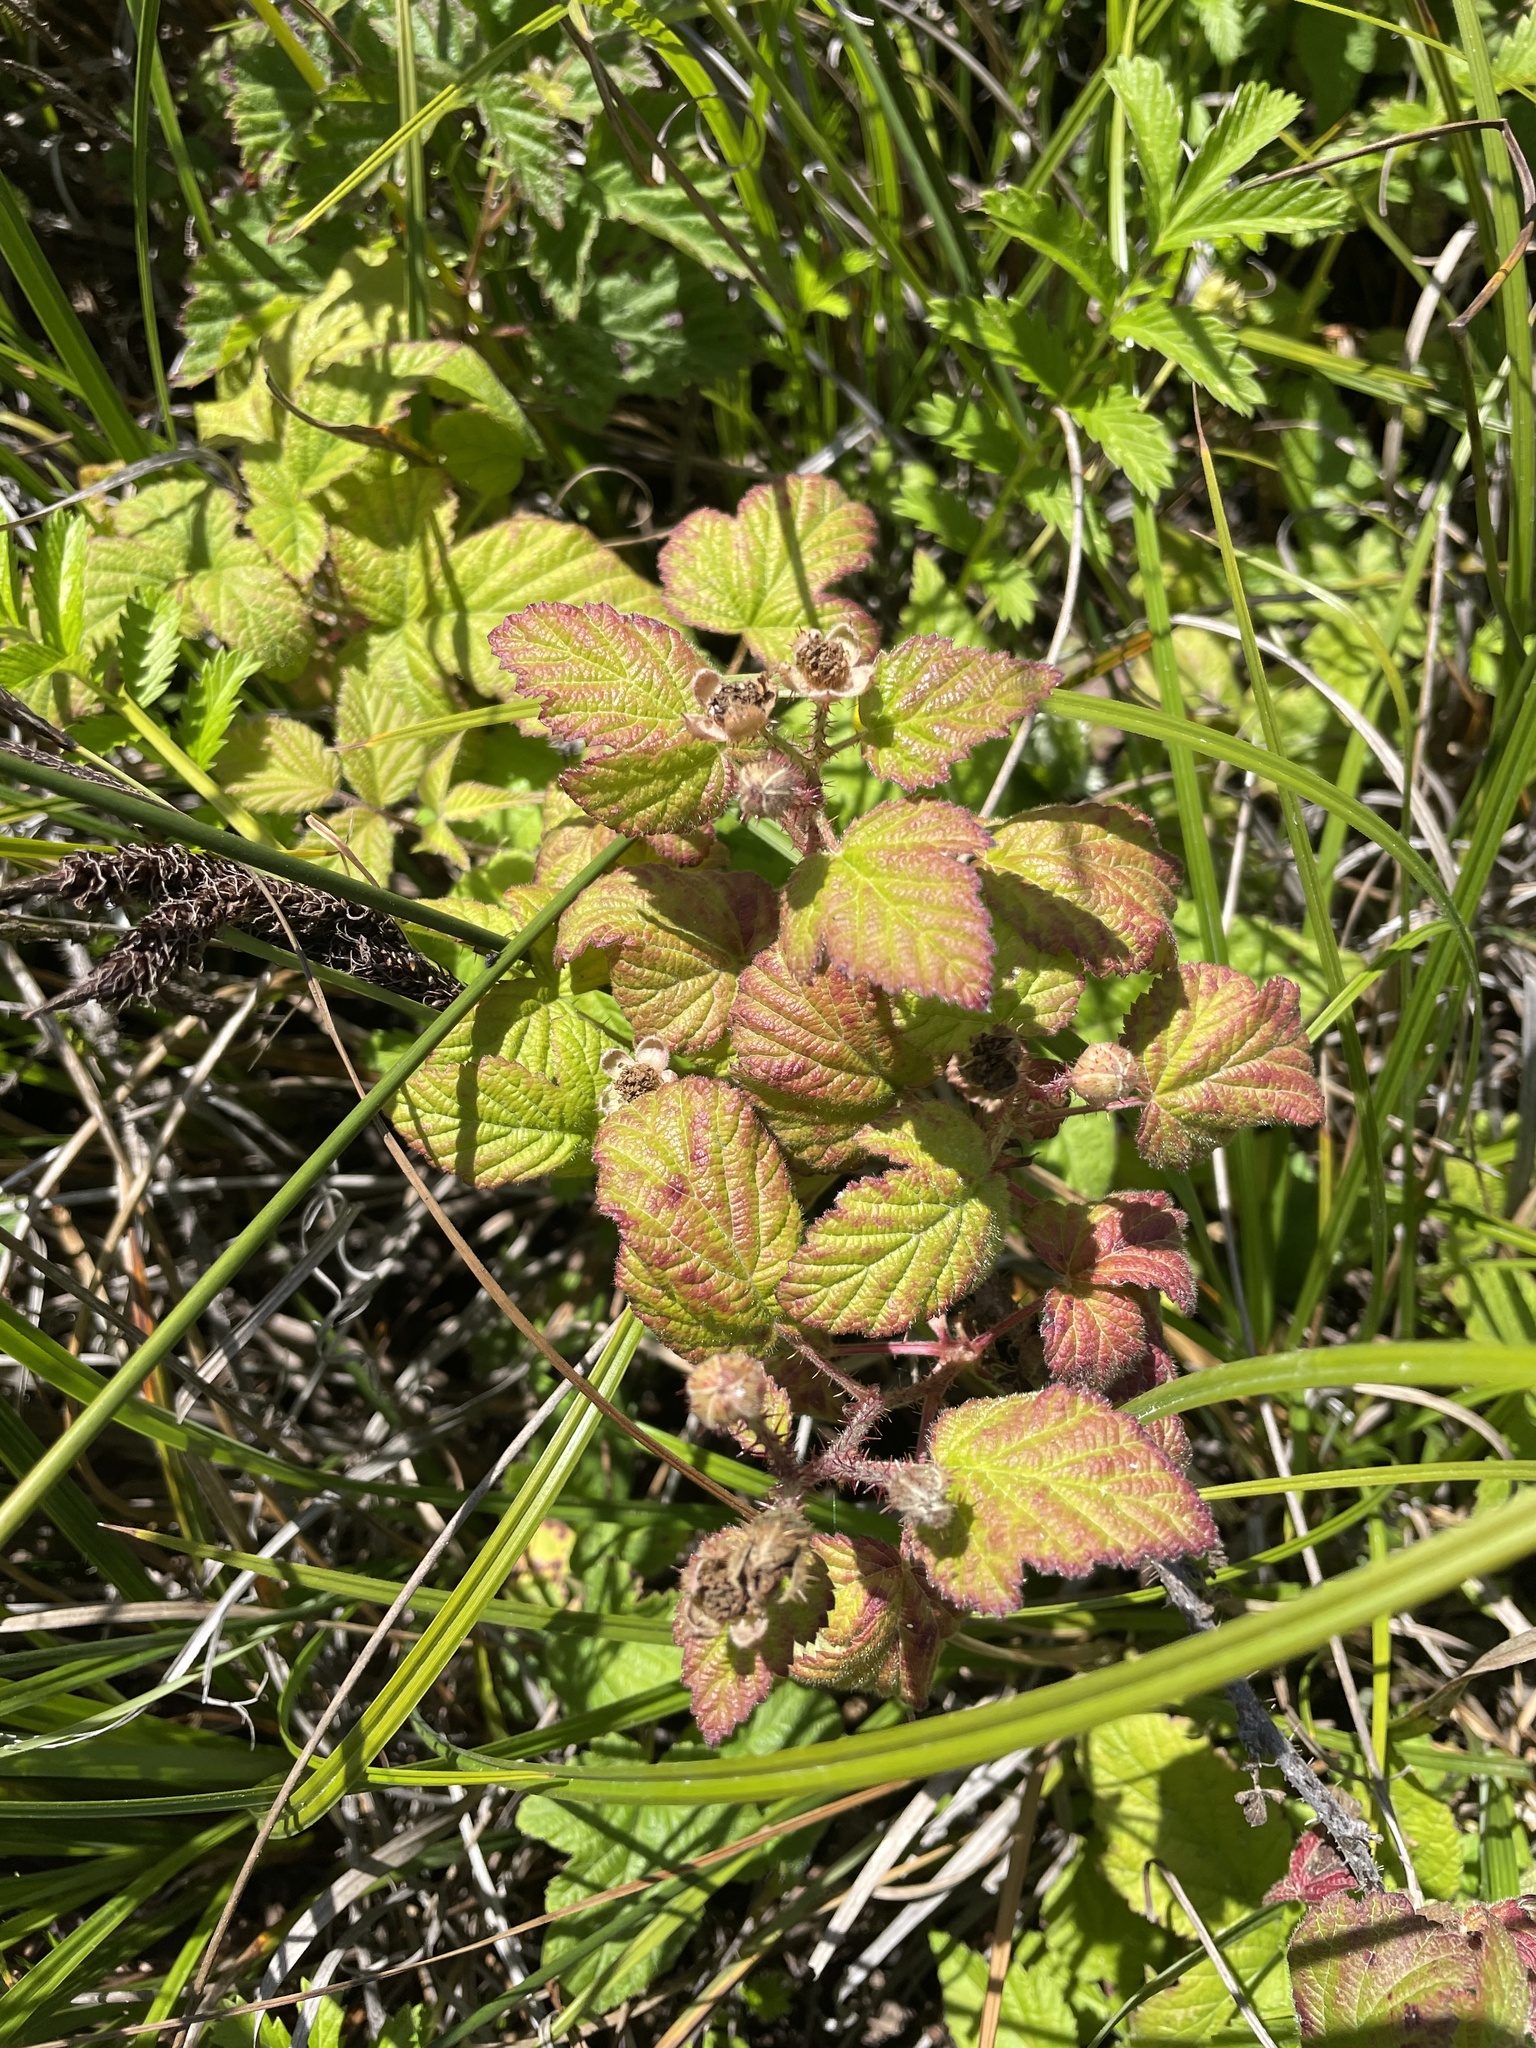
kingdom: Plantae
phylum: Tracheophyta
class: Magnoliopsida
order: Rosales
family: Rosaceae
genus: Rubus
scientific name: Rubus ursinus
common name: Pacific blackberry
